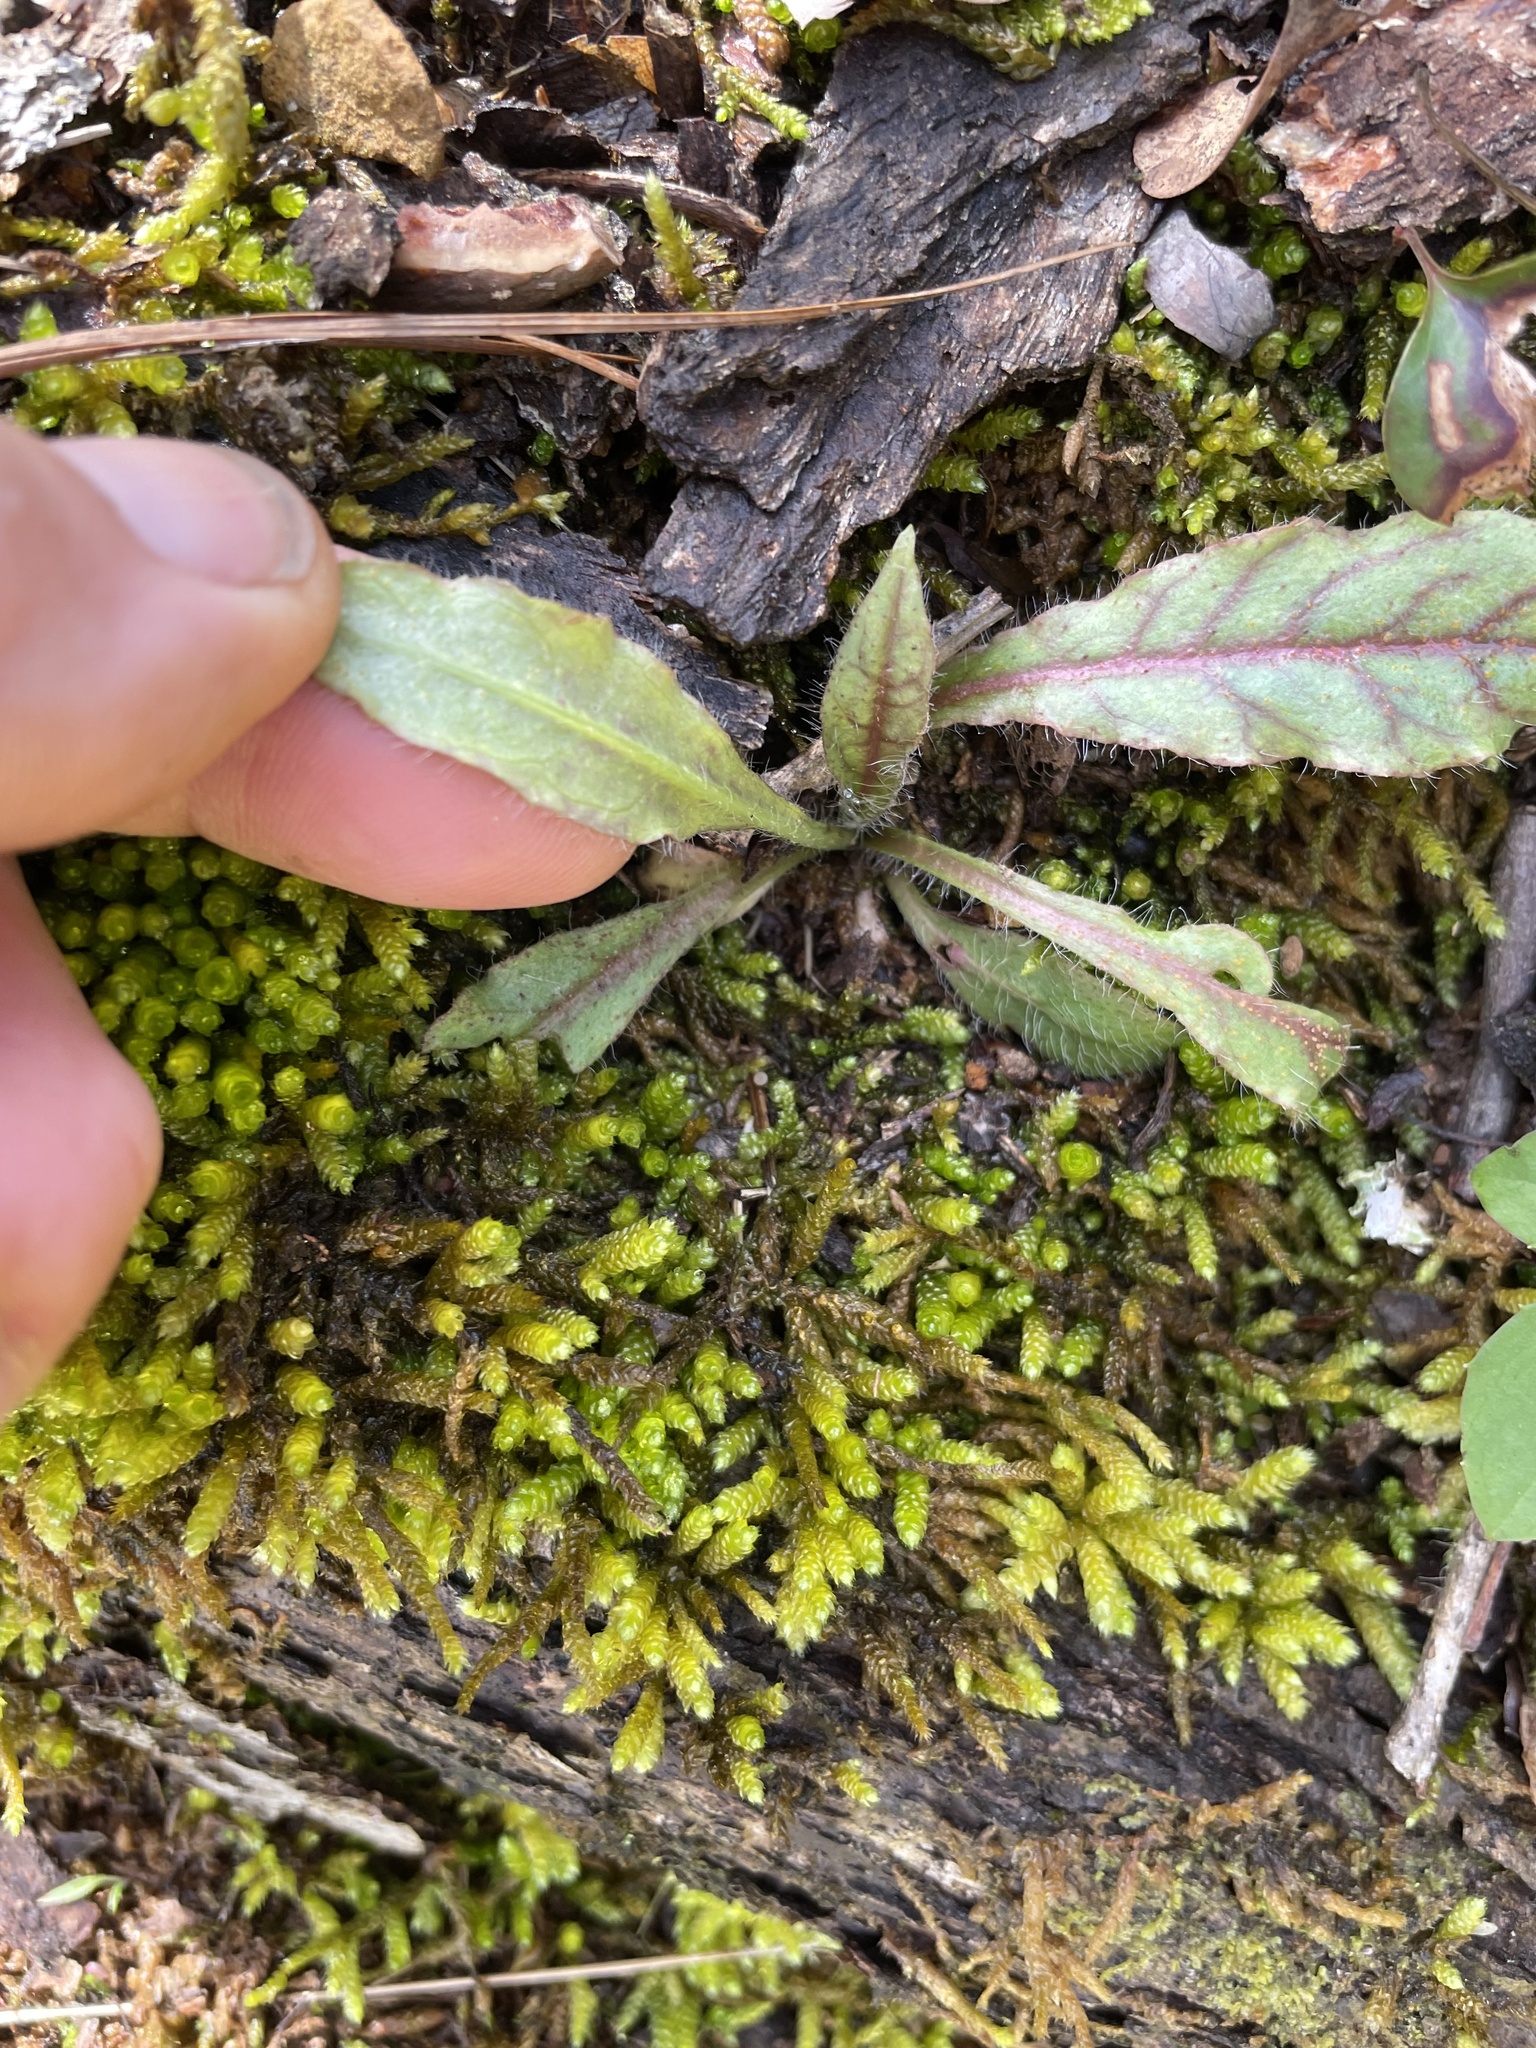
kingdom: Plantae
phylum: Tracheophyta
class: Magnoliopsida
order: Asterales
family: Asteraceae
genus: Hieracium
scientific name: Hieracium venosum
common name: Rattlesnake hawkweed
